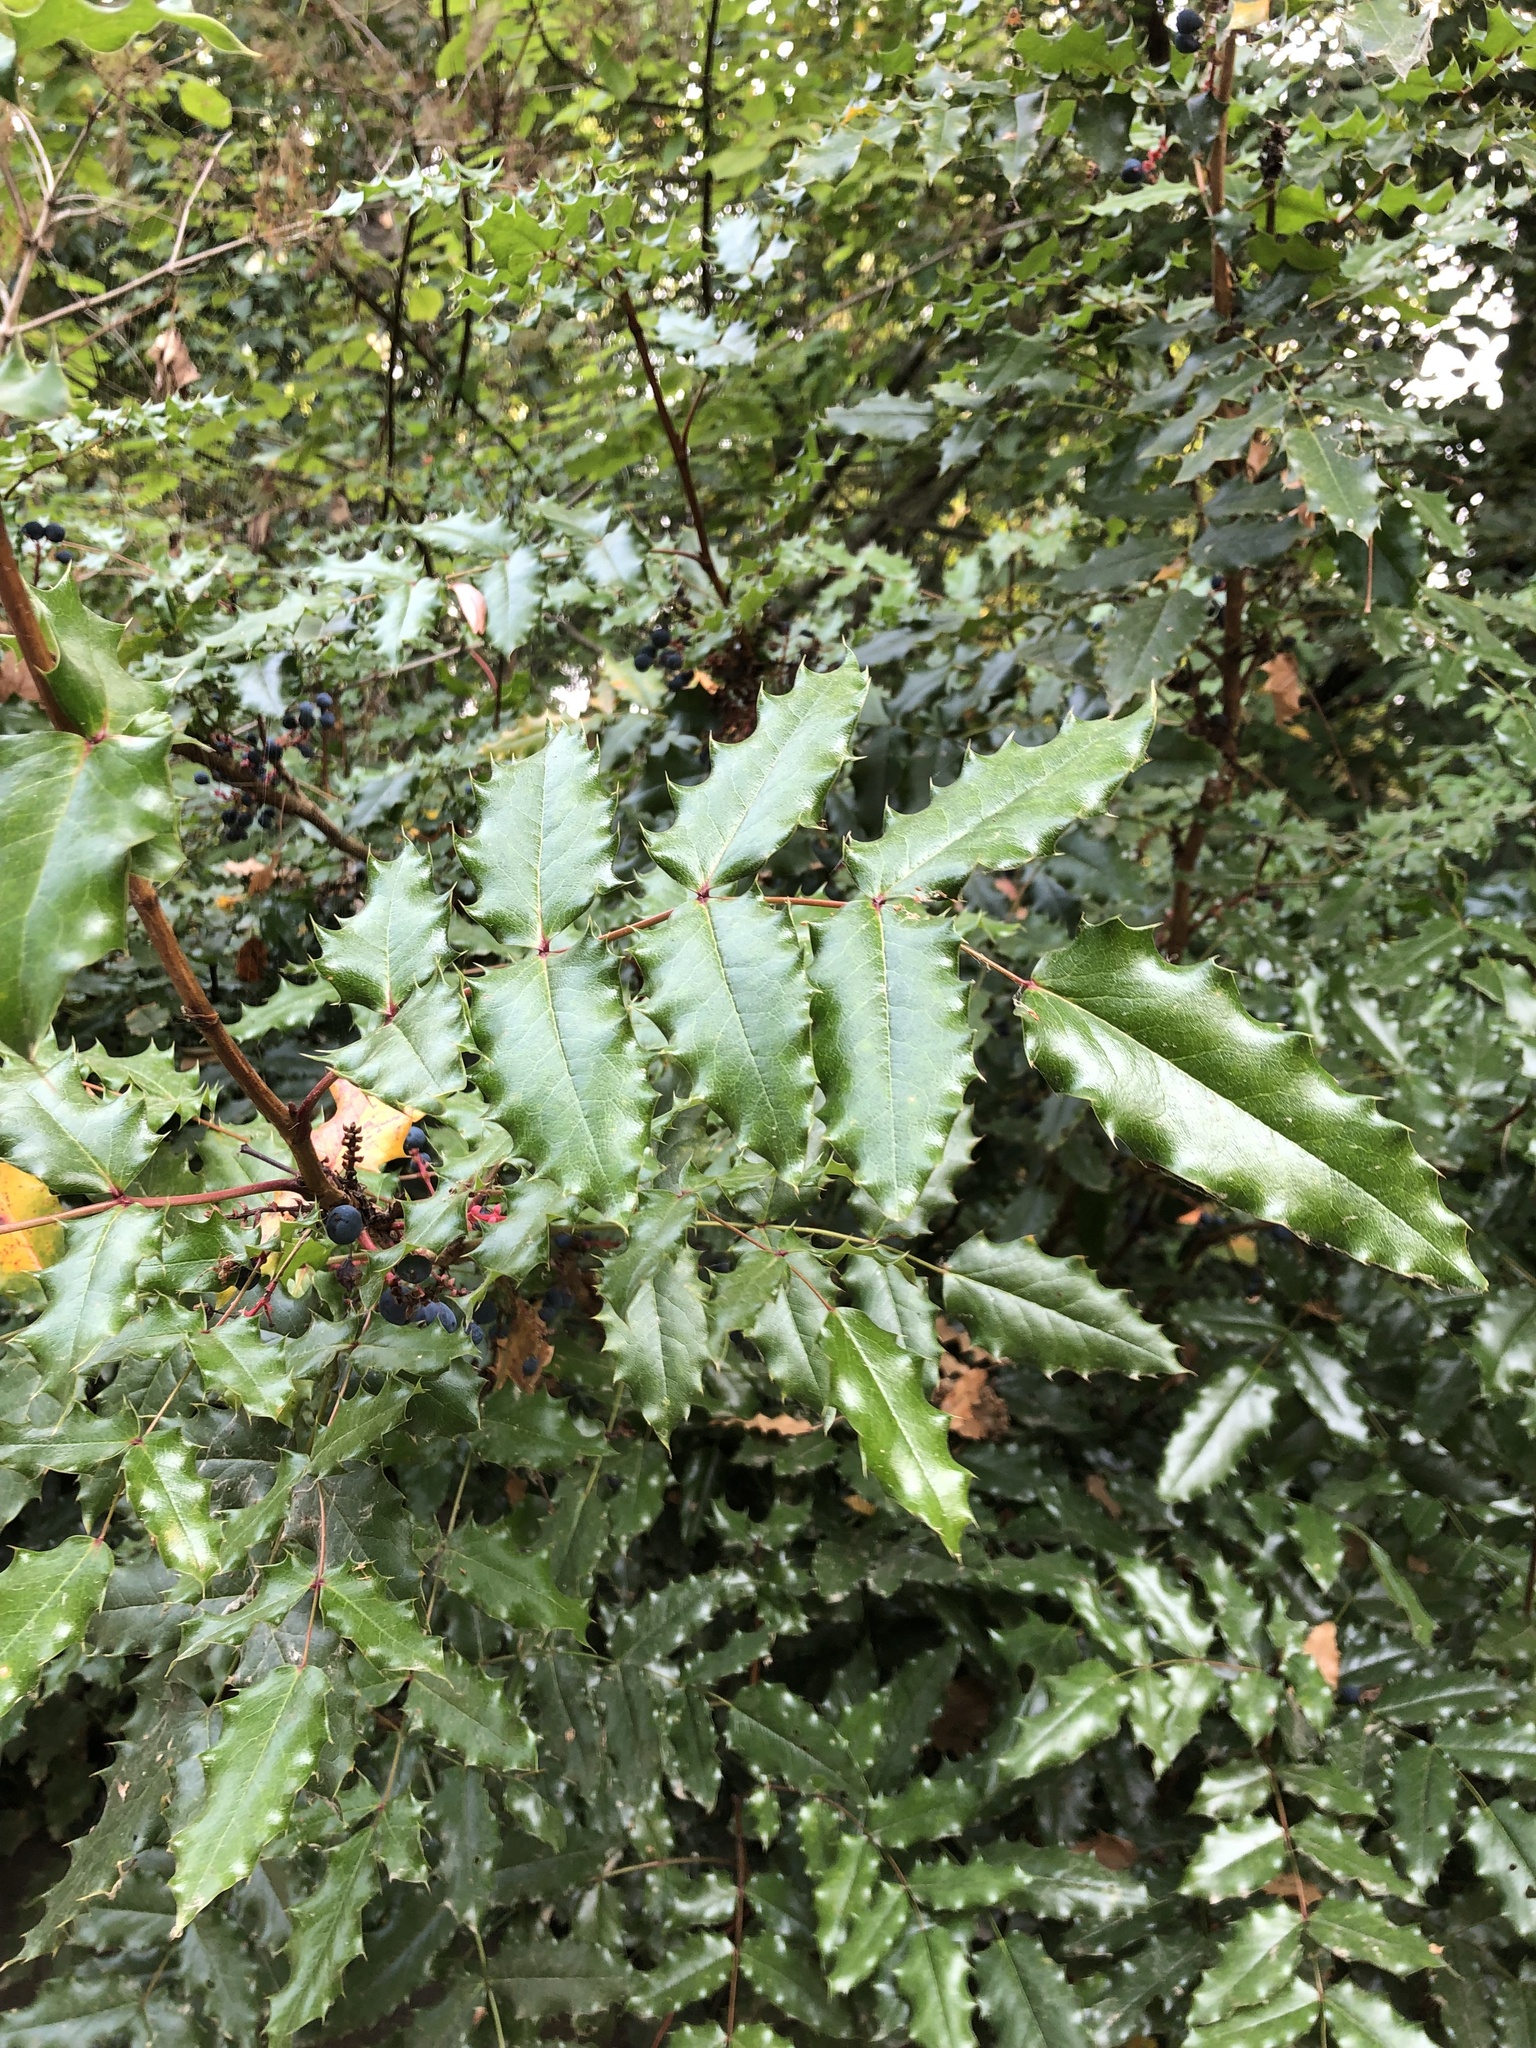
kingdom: Plantae
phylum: Tracheophyta
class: Magnoliopsida
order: Ranunculales
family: Berberidaceae
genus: Mahonia
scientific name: Mahonia aquifolium
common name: Oregon-grape
